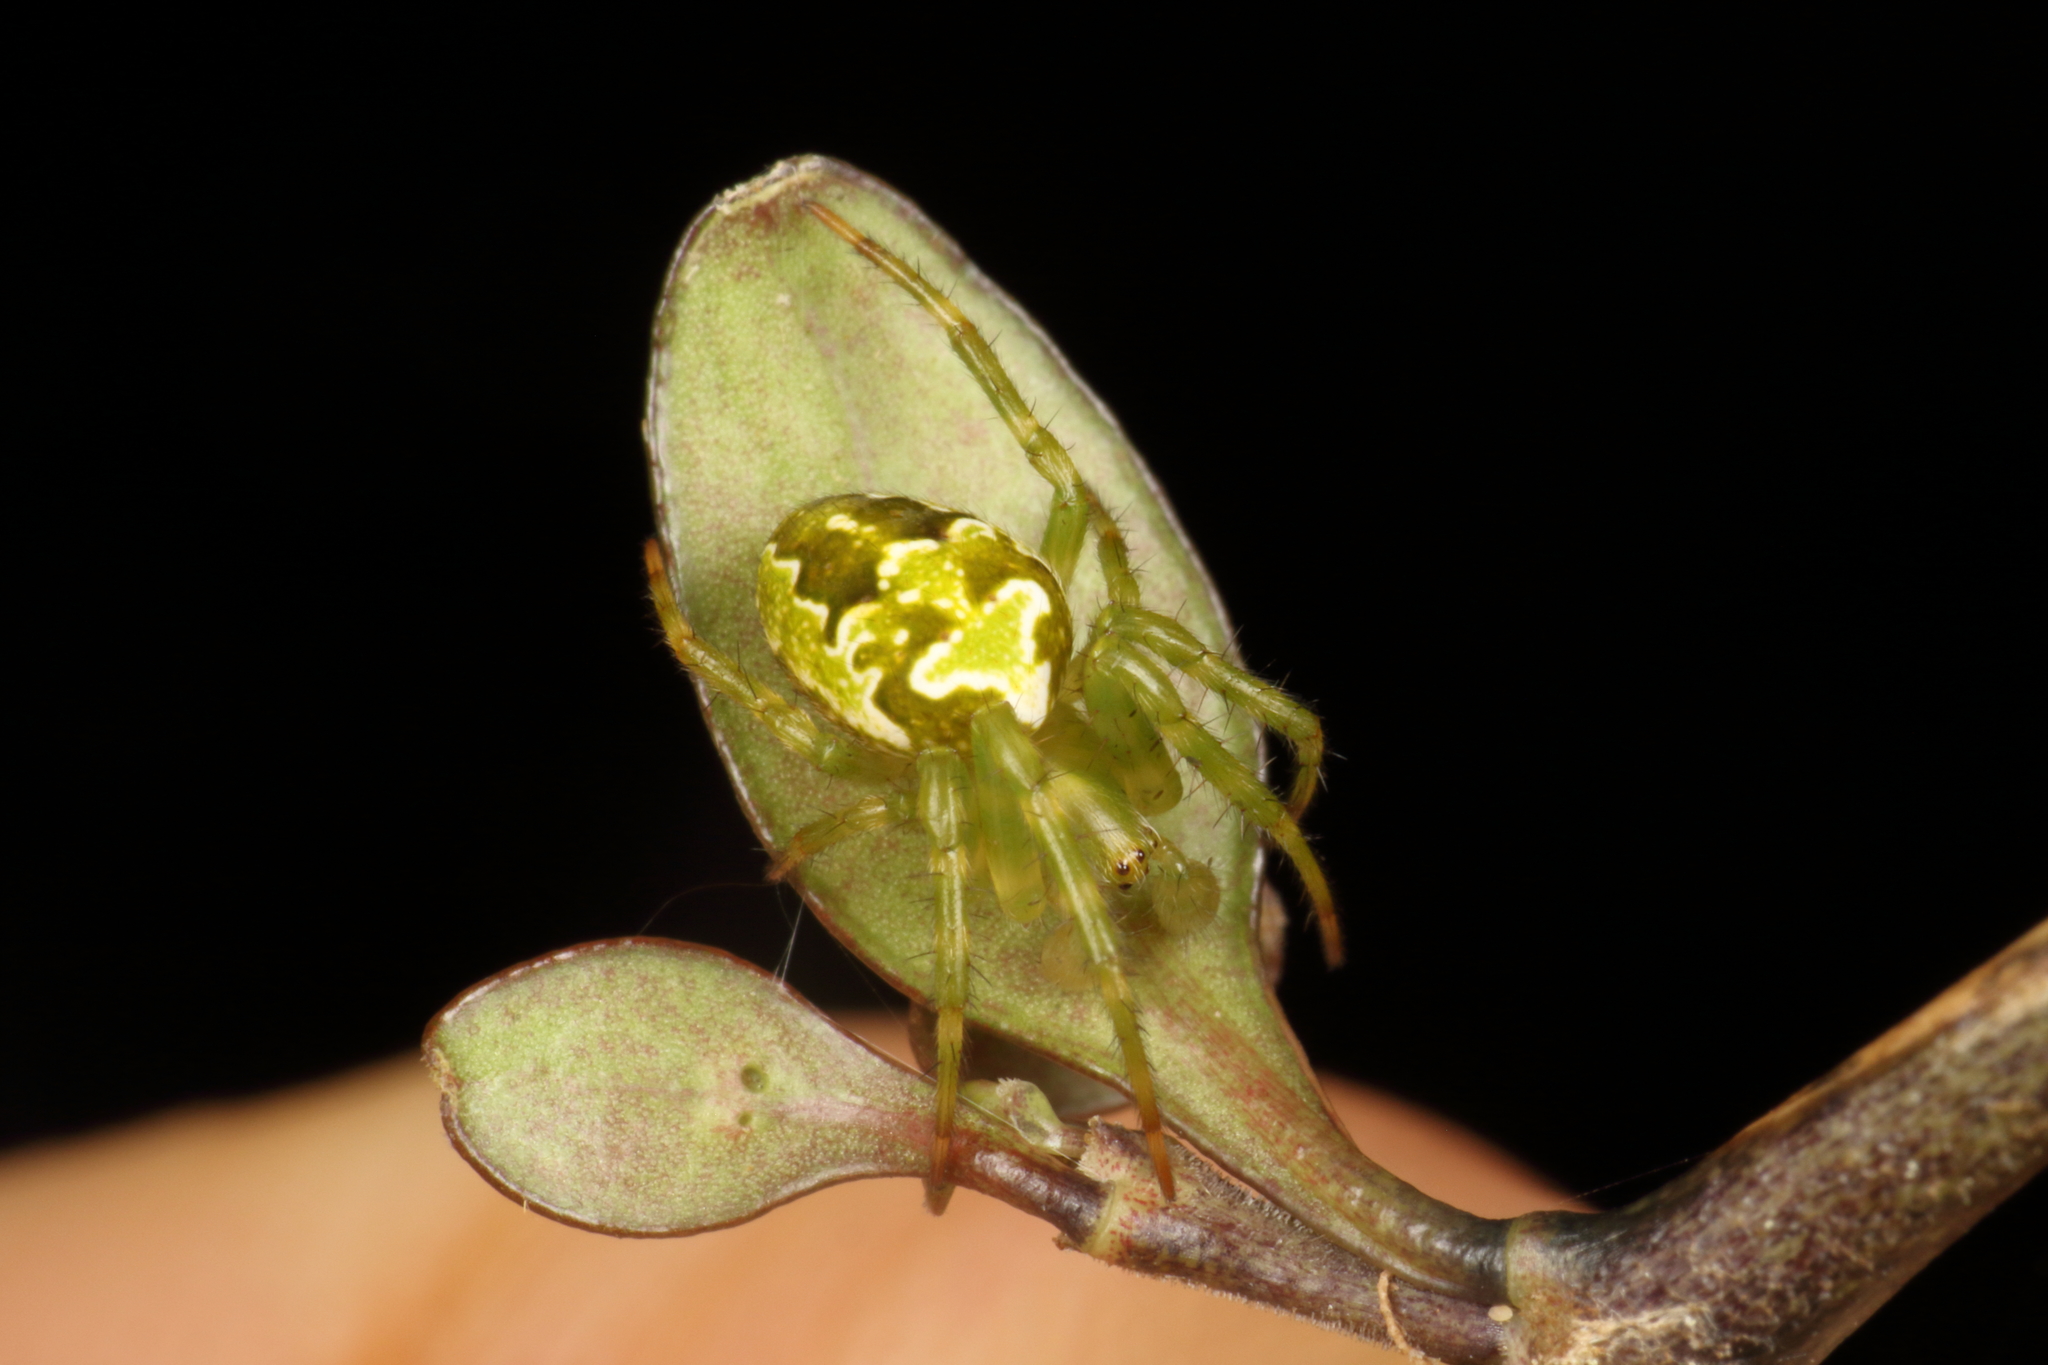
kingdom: Animalia
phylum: Arthropoda
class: Arachnida
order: Araneae
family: Araneidae
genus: Colaranea
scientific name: Colaranea verutum
